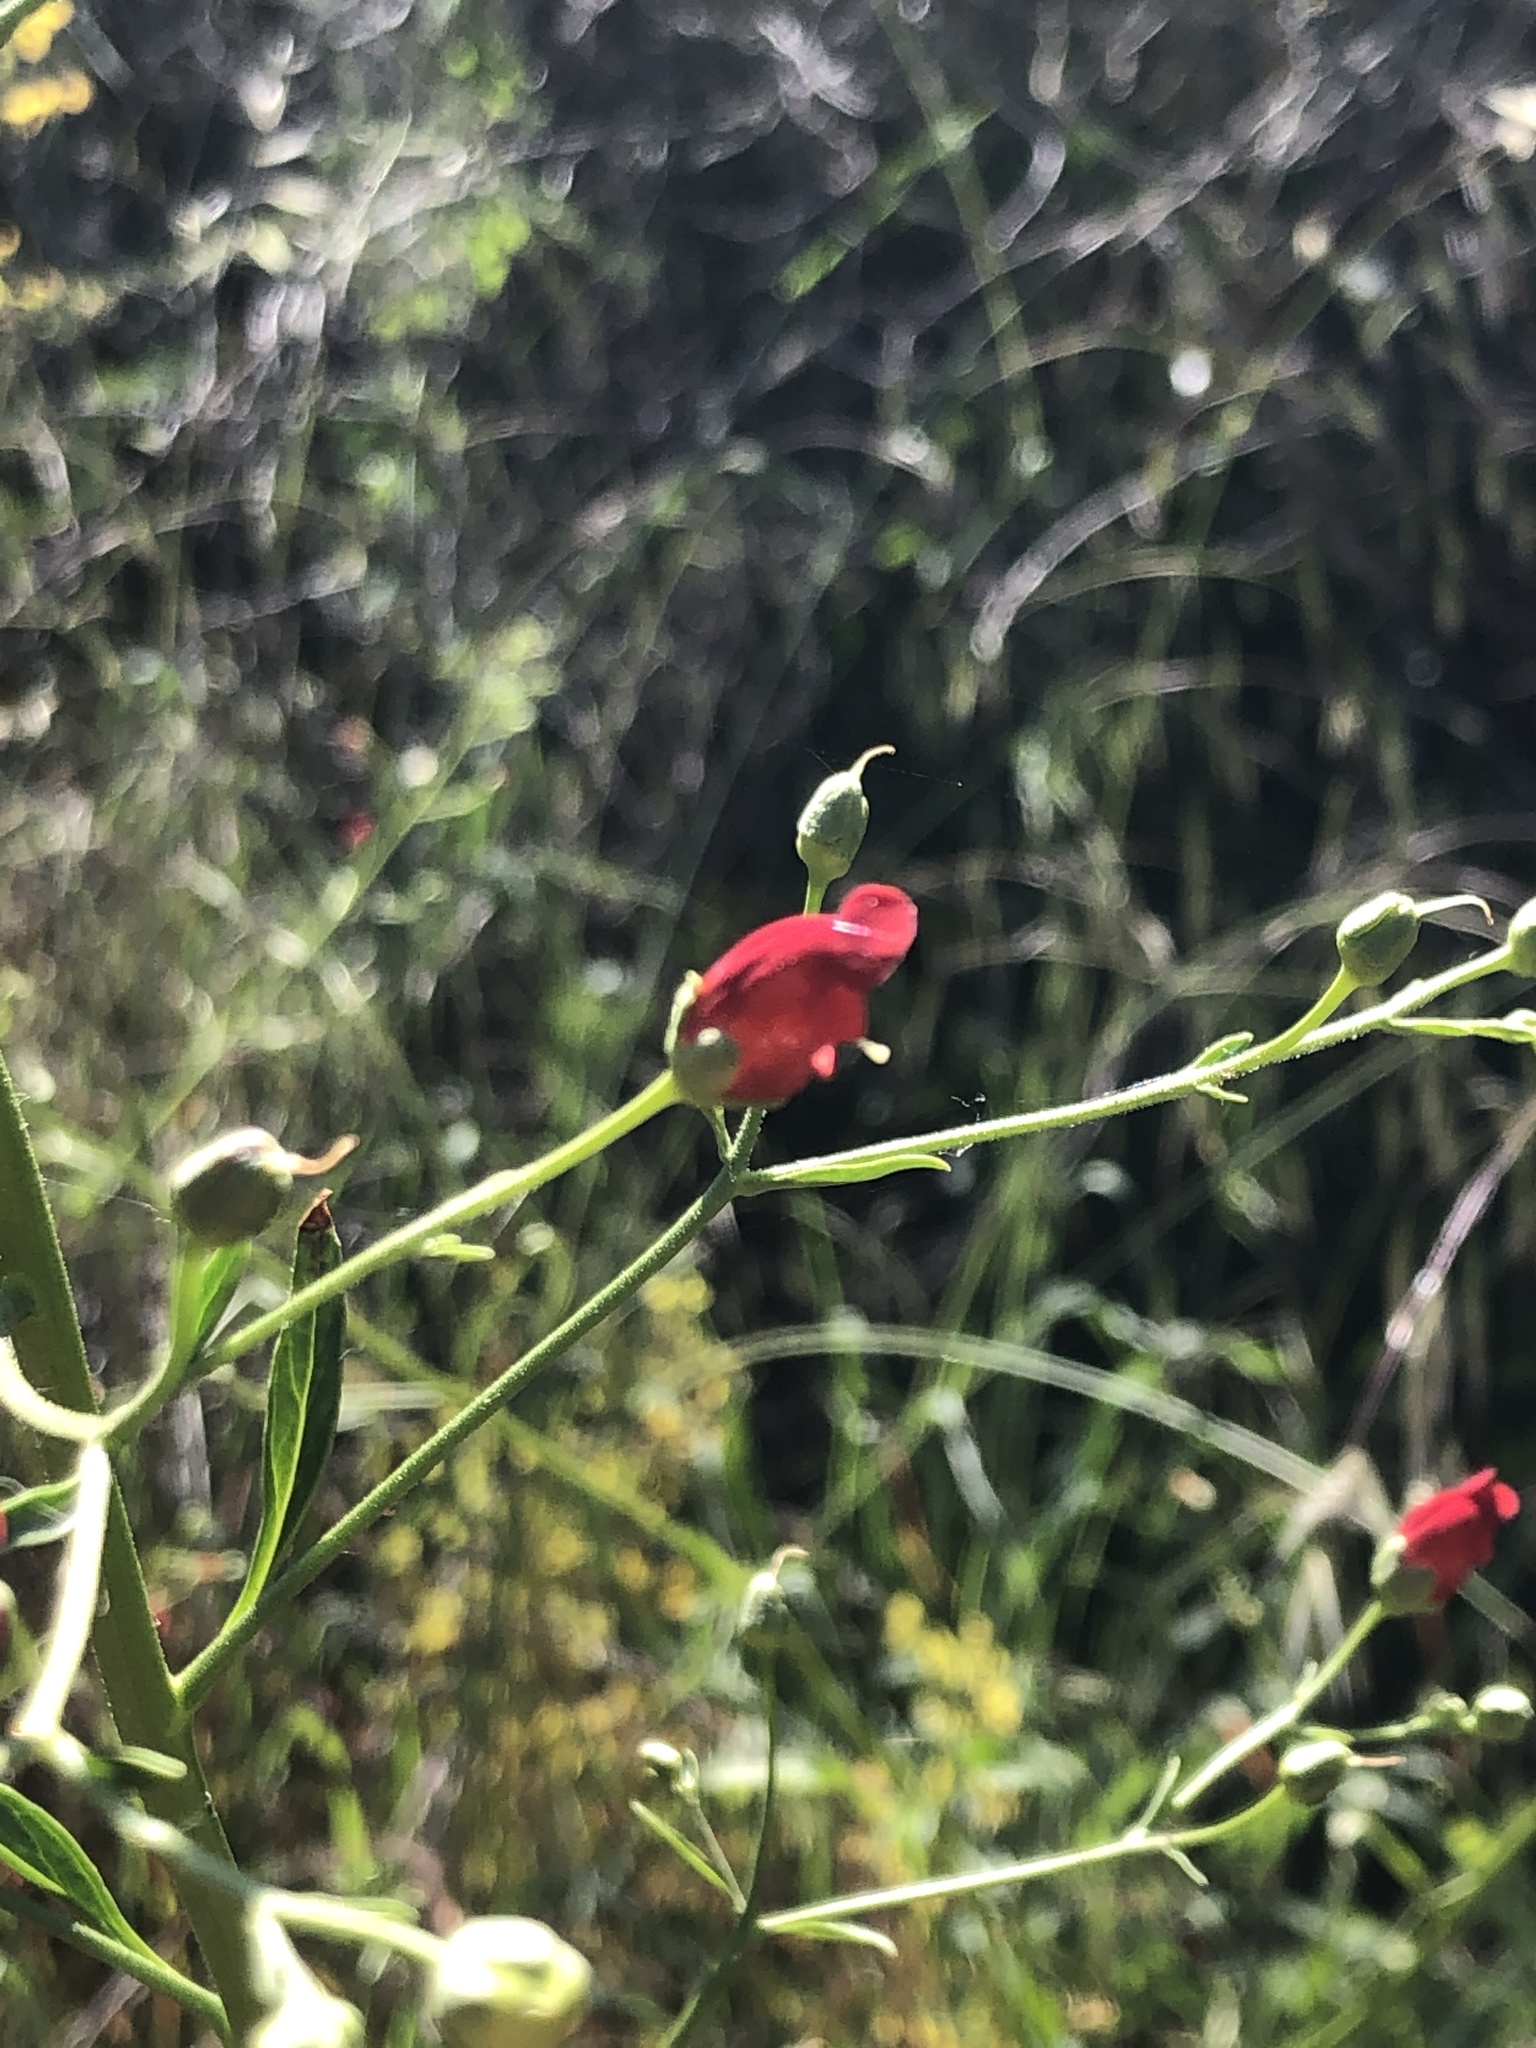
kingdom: Plantae
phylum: Tracheophyta
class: Magnoliopsida
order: Lamiales
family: Scrophulariaceae
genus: Scrophularia
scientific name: Scrophularia californica
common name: California figwort
